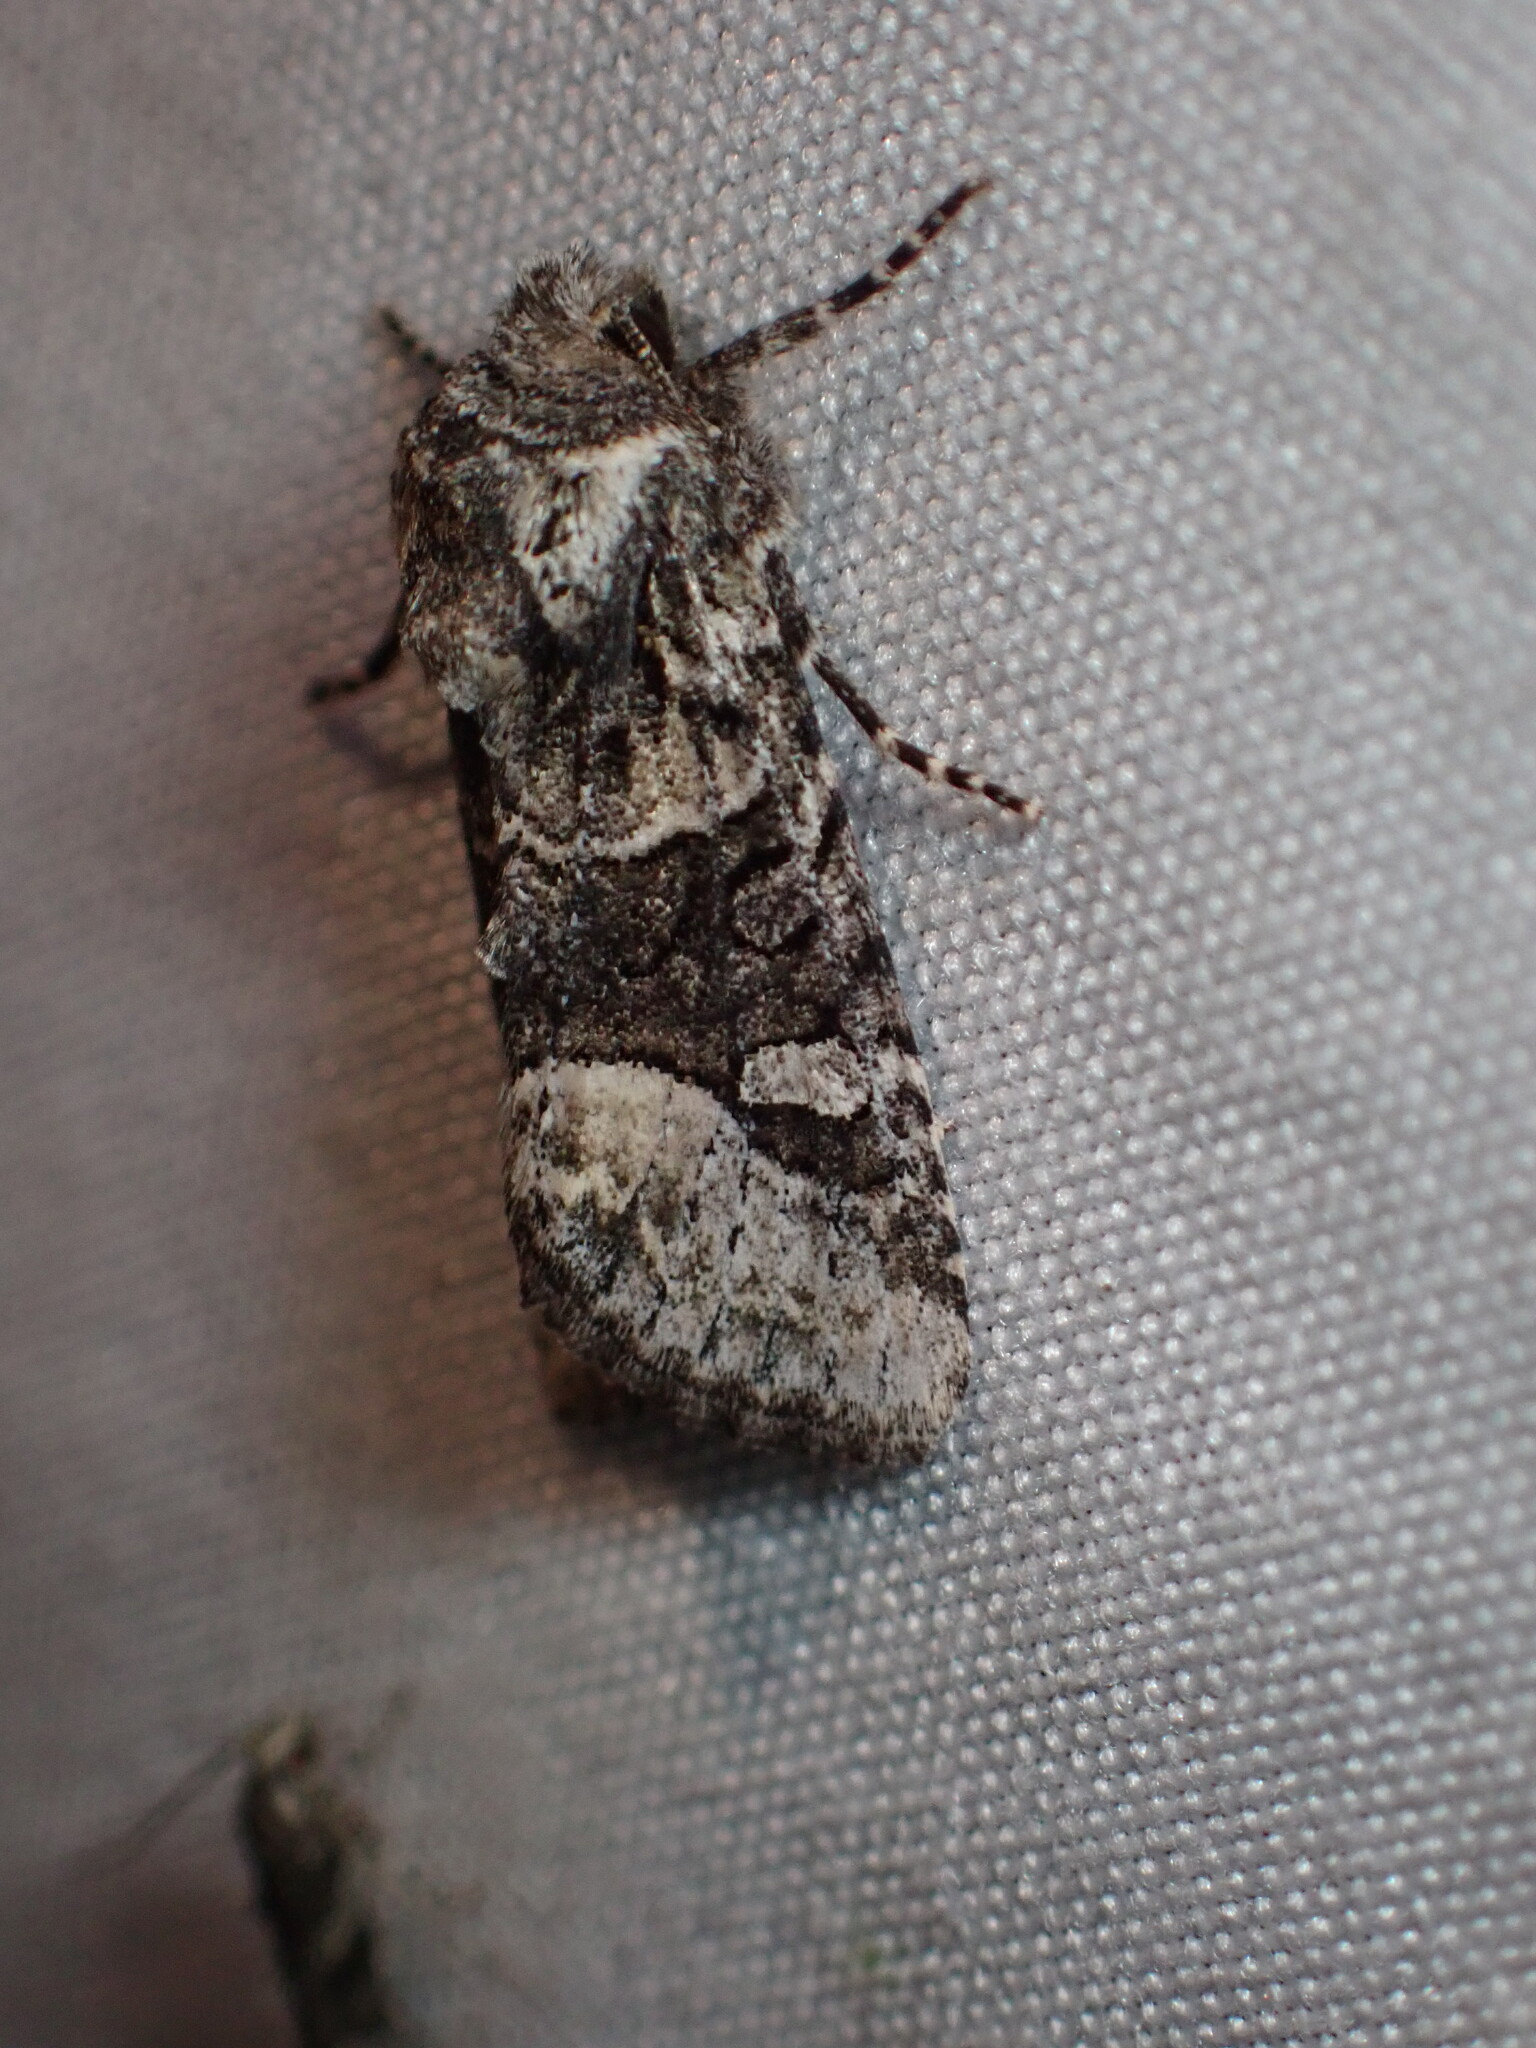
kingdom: Animalia
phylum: Arthropoda
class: Insecta
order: Lepidoptera
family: Noctuidae
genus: Lacinipolia
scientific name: Lacinipolia olivacea
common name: Olive arches moth
